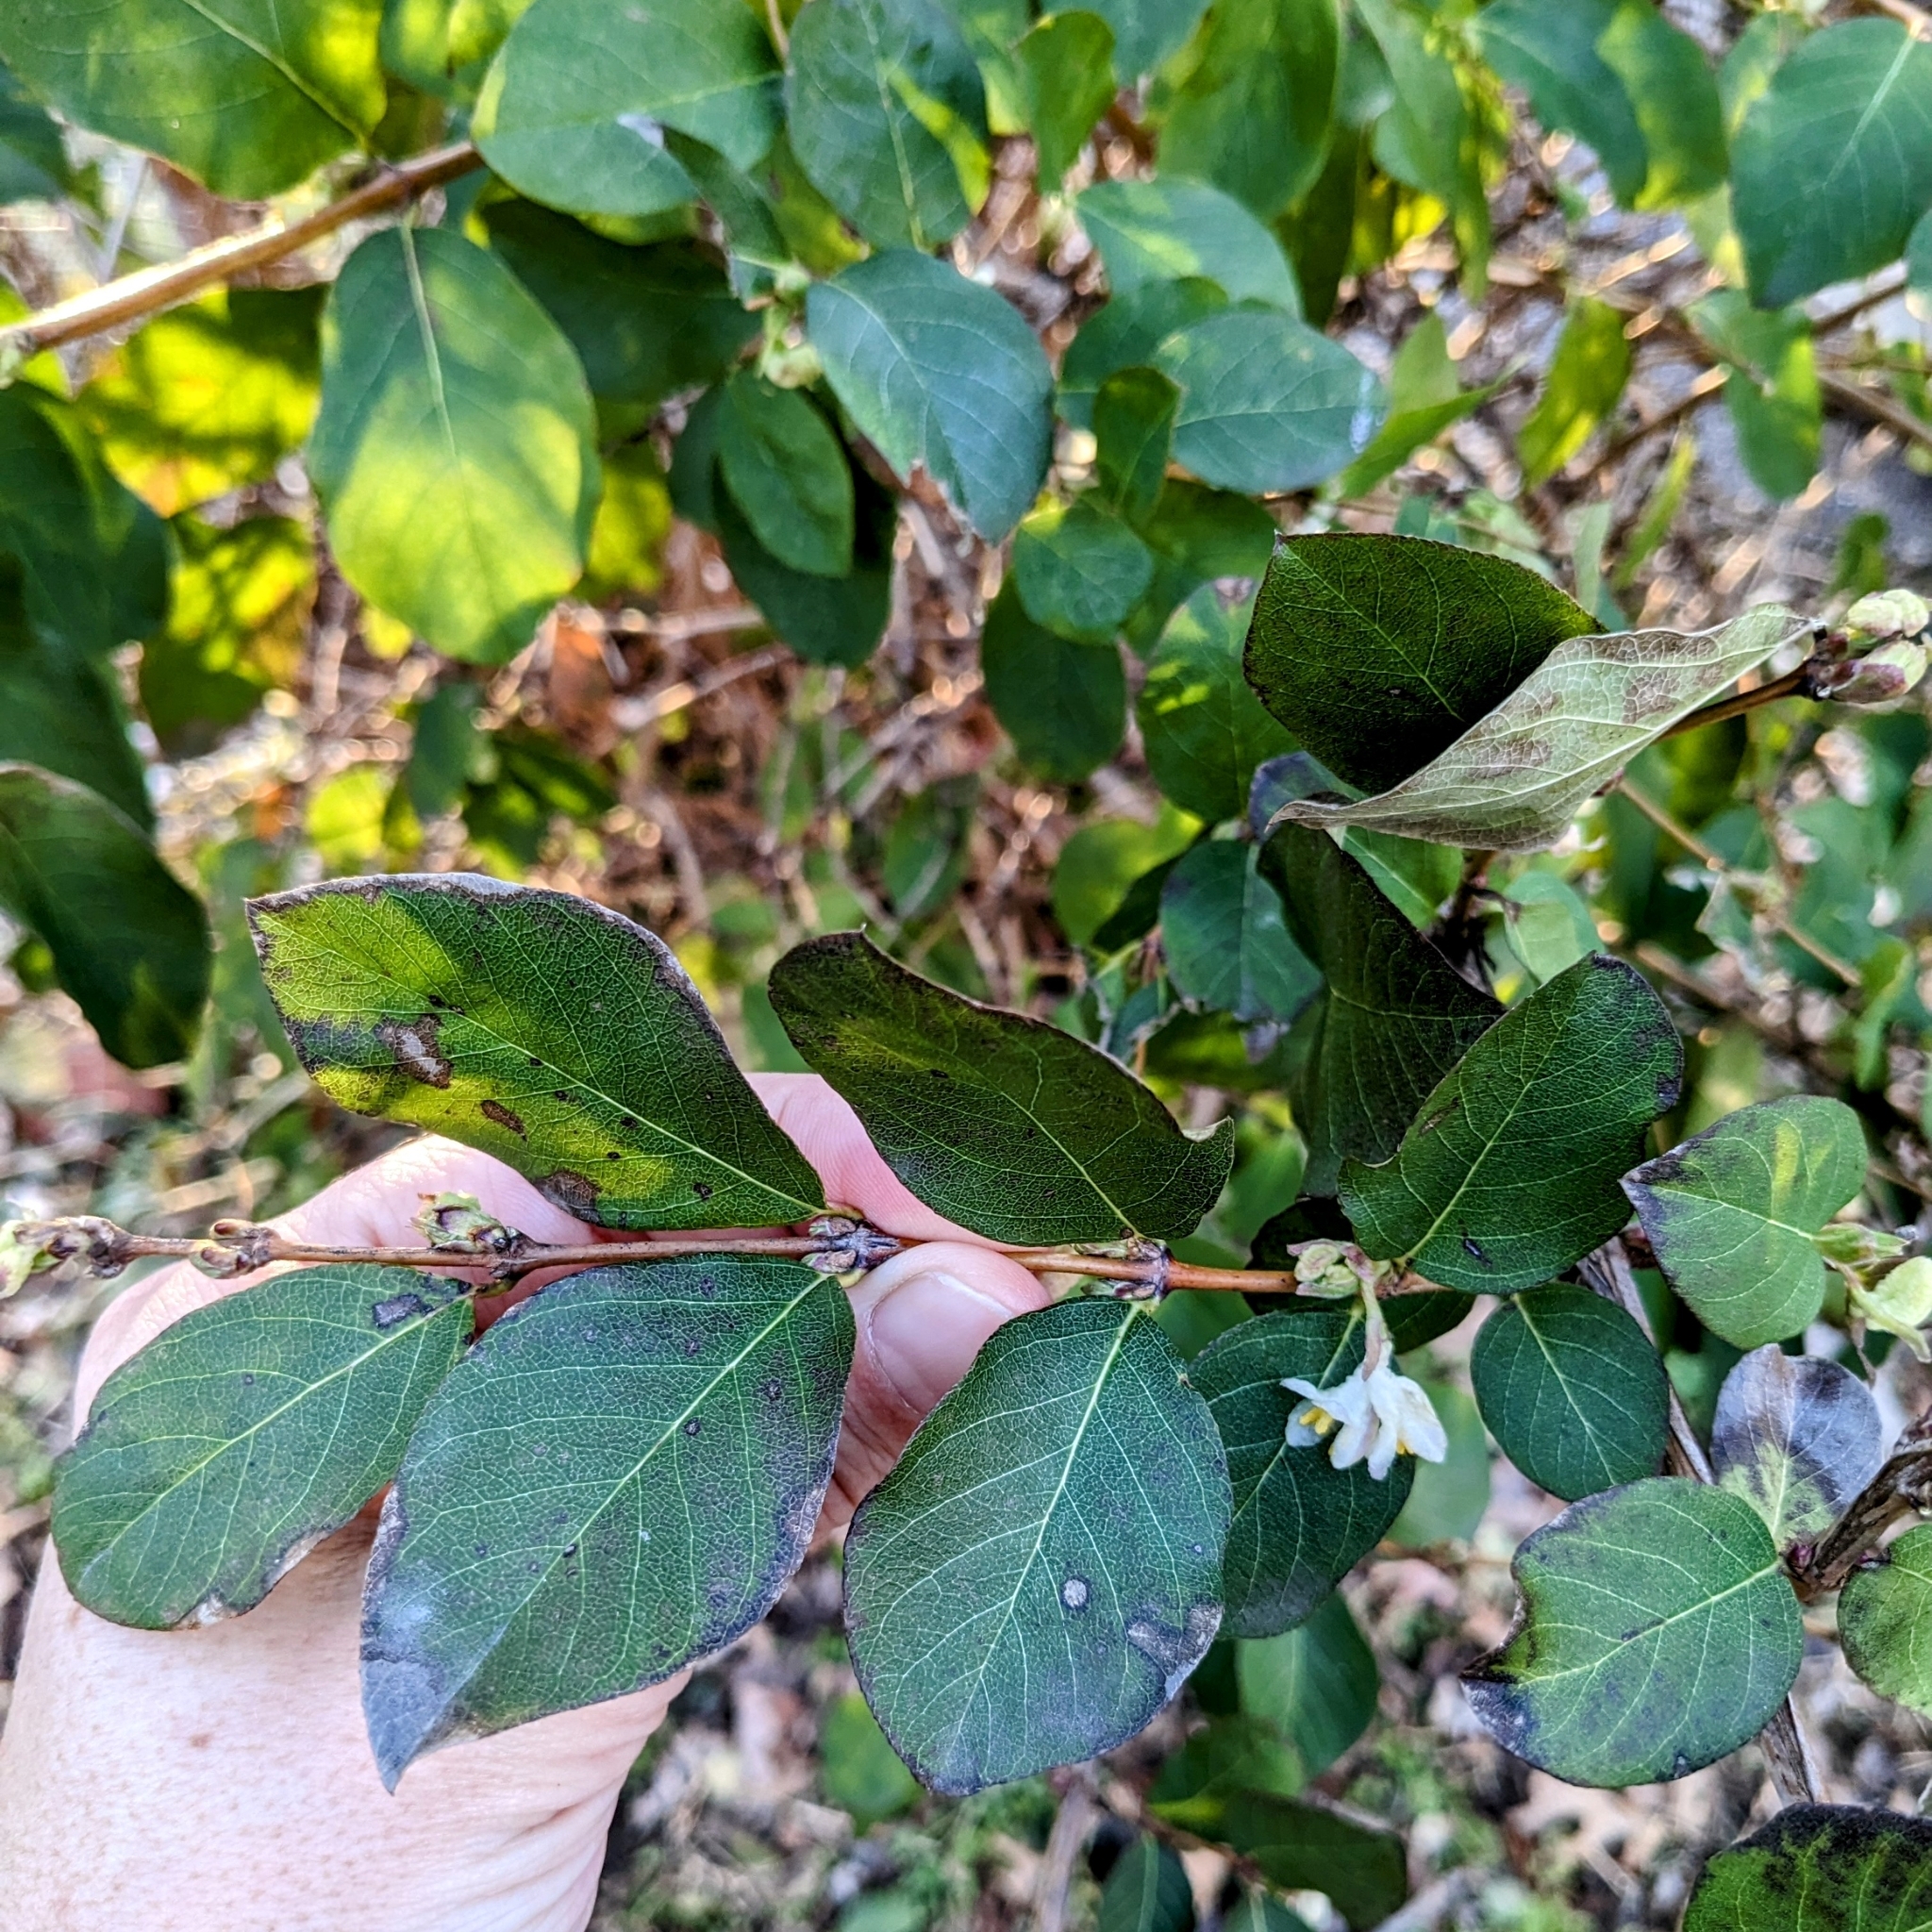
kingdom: Plantae
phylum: Tracheophyta
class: Magnoliopsida
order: Dipsacales
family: Caprifoliaceae
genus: Lonicera
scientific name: Lonicera fragrantissima
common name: Fragrant honeysuckle
